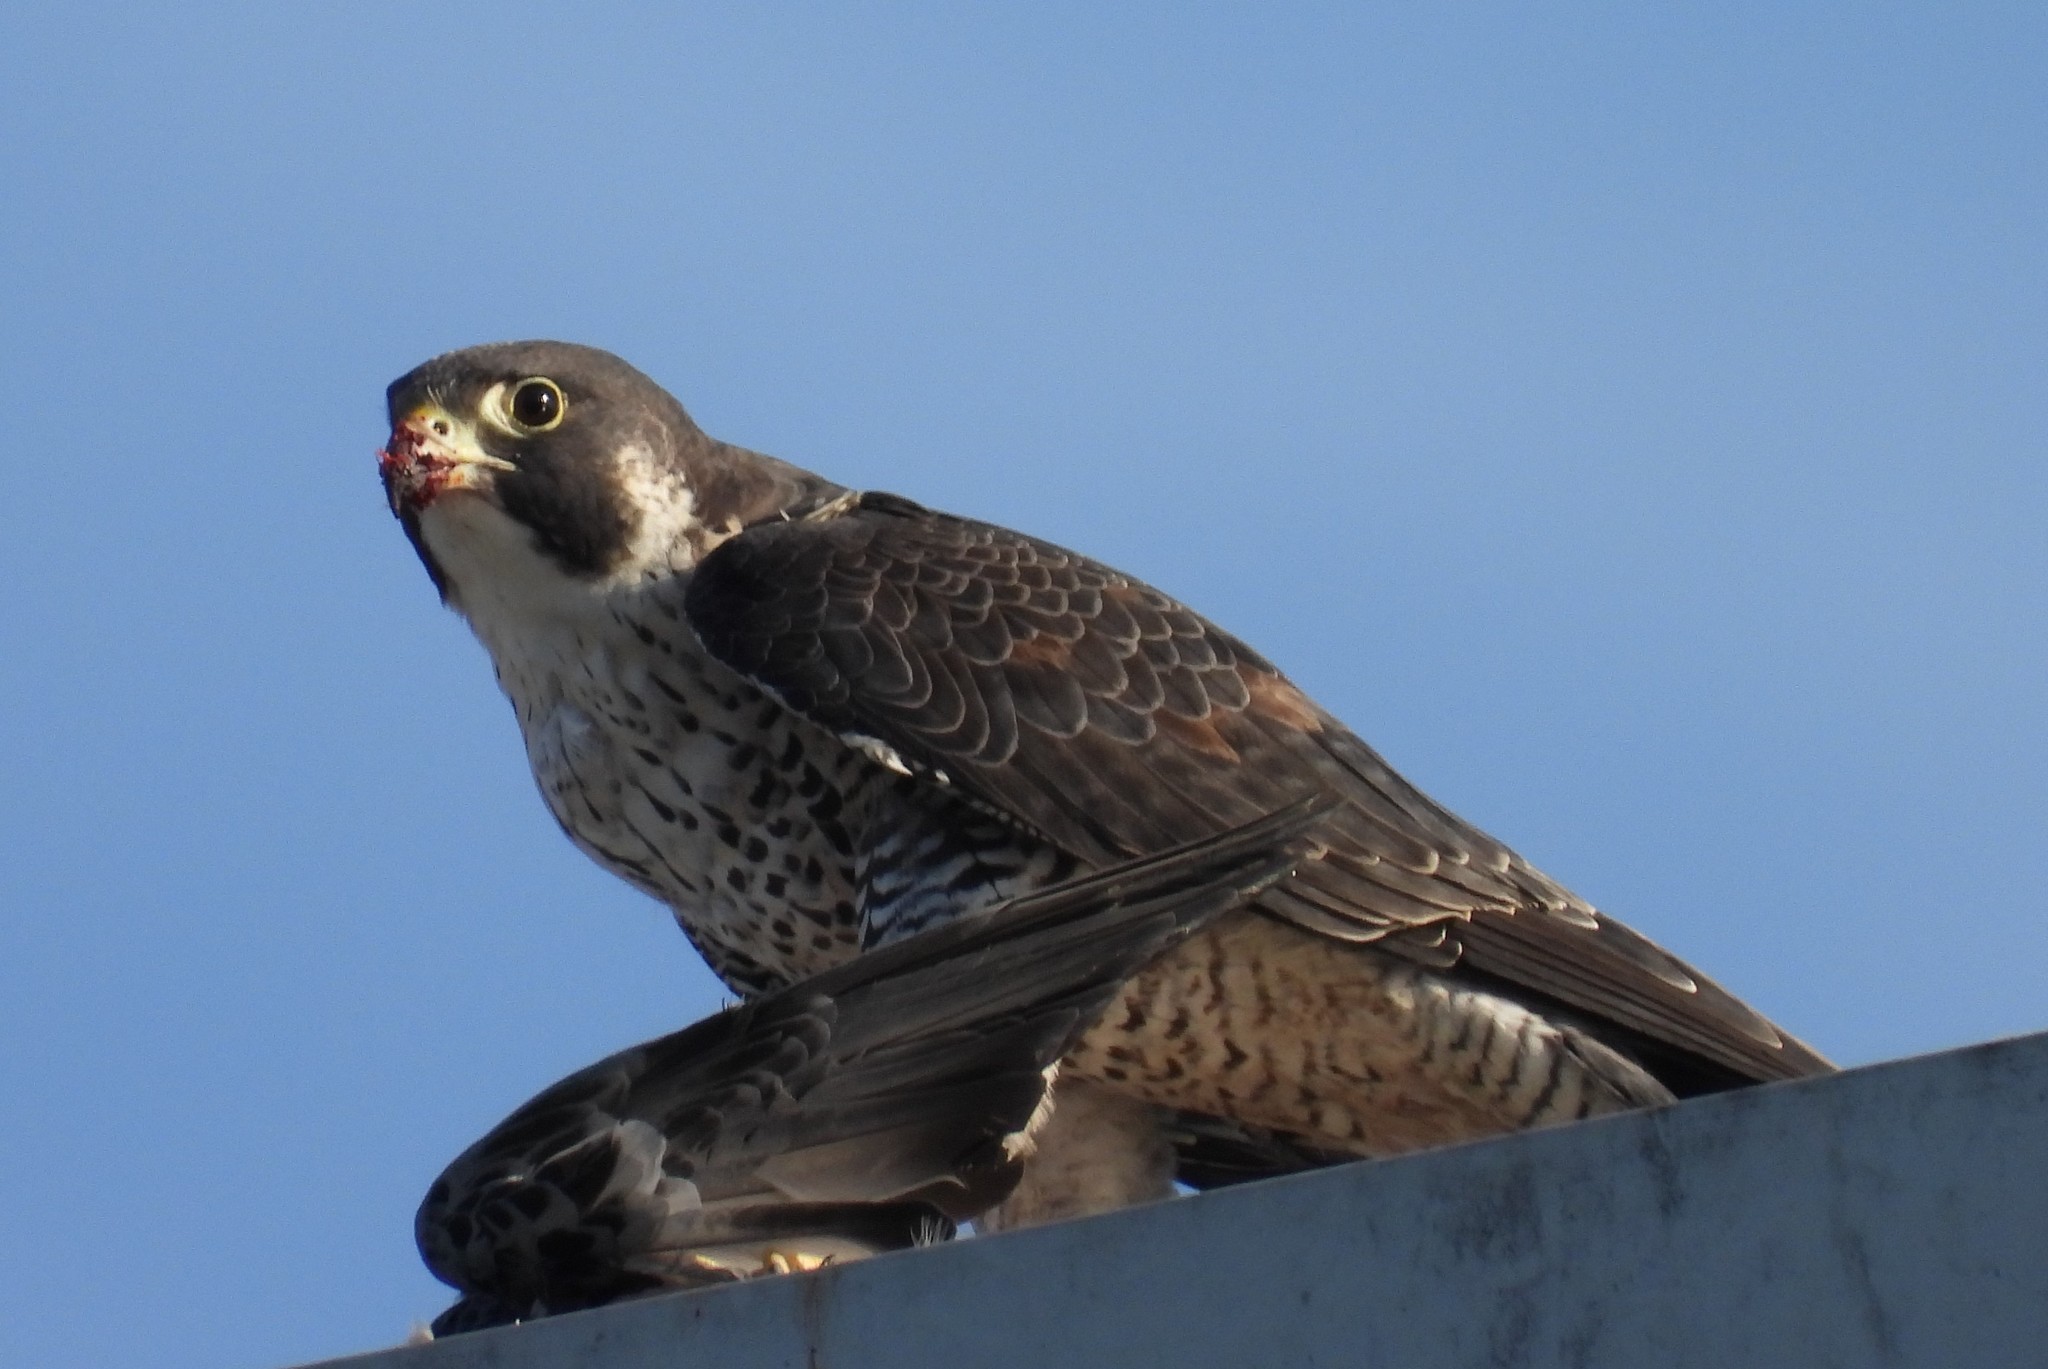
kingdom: Animalia
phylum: Chordata
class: Aves
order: Falconiformes
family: Falconidae
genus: Falco
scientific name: Falco peregrinus
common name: Peregrine falcon
